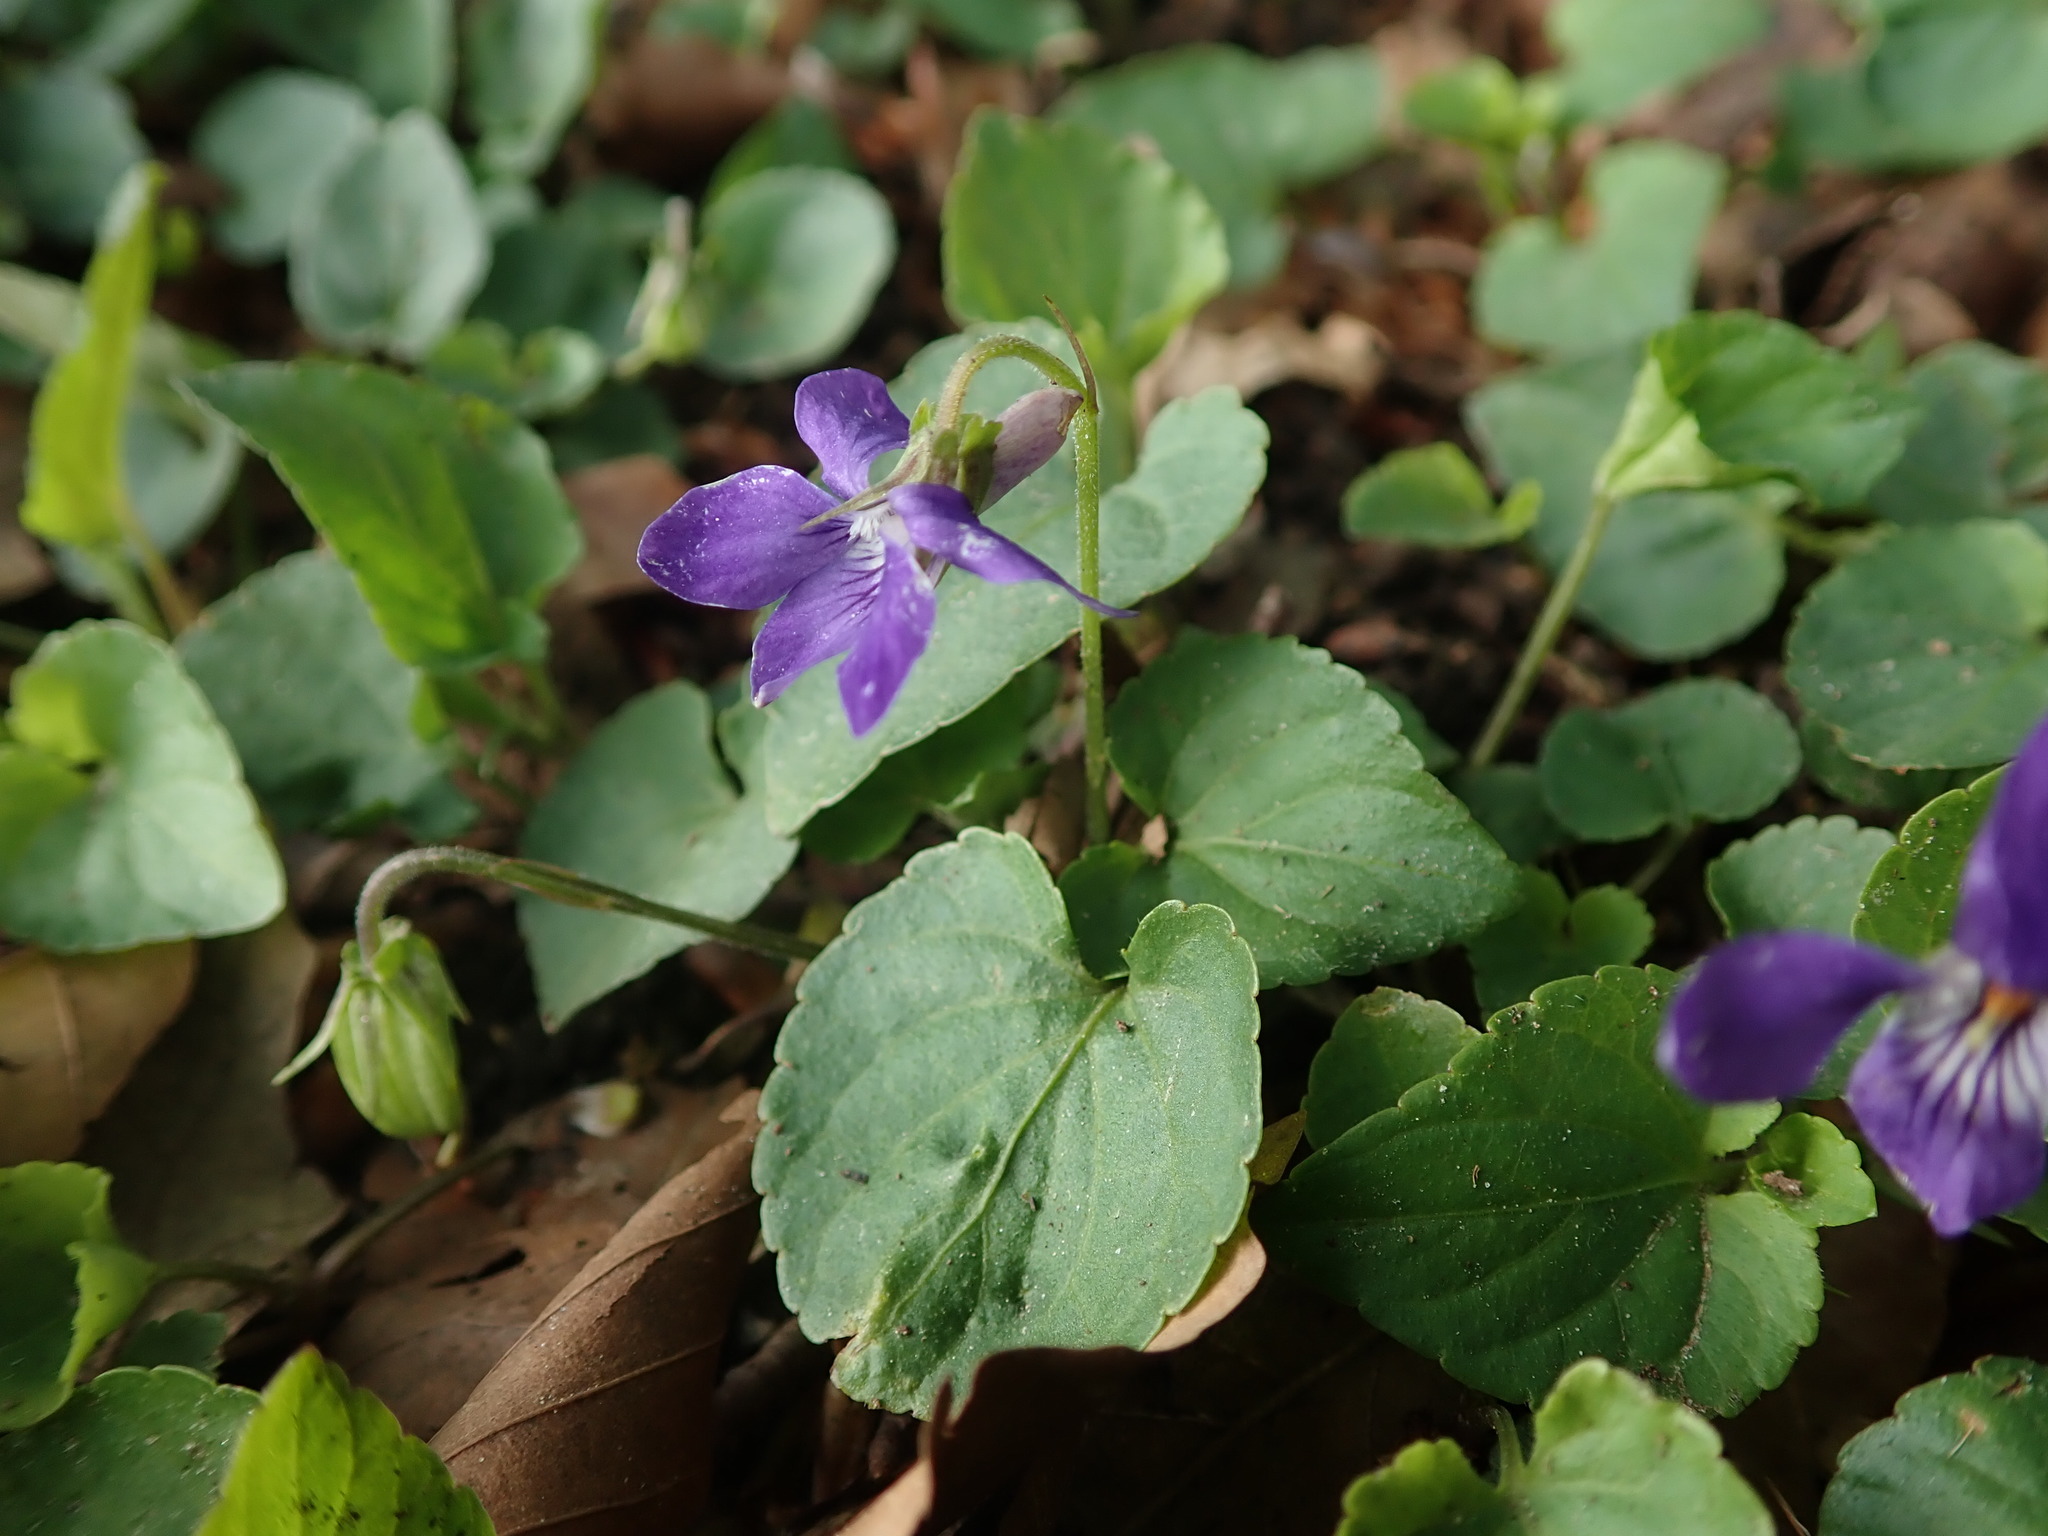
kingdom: Plantae
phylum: Tracheophyta
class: Magnoliopsida
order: Malpighiales
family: Violaceae
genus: Viola
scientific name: Viola riviniana
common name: Common dog-violet
